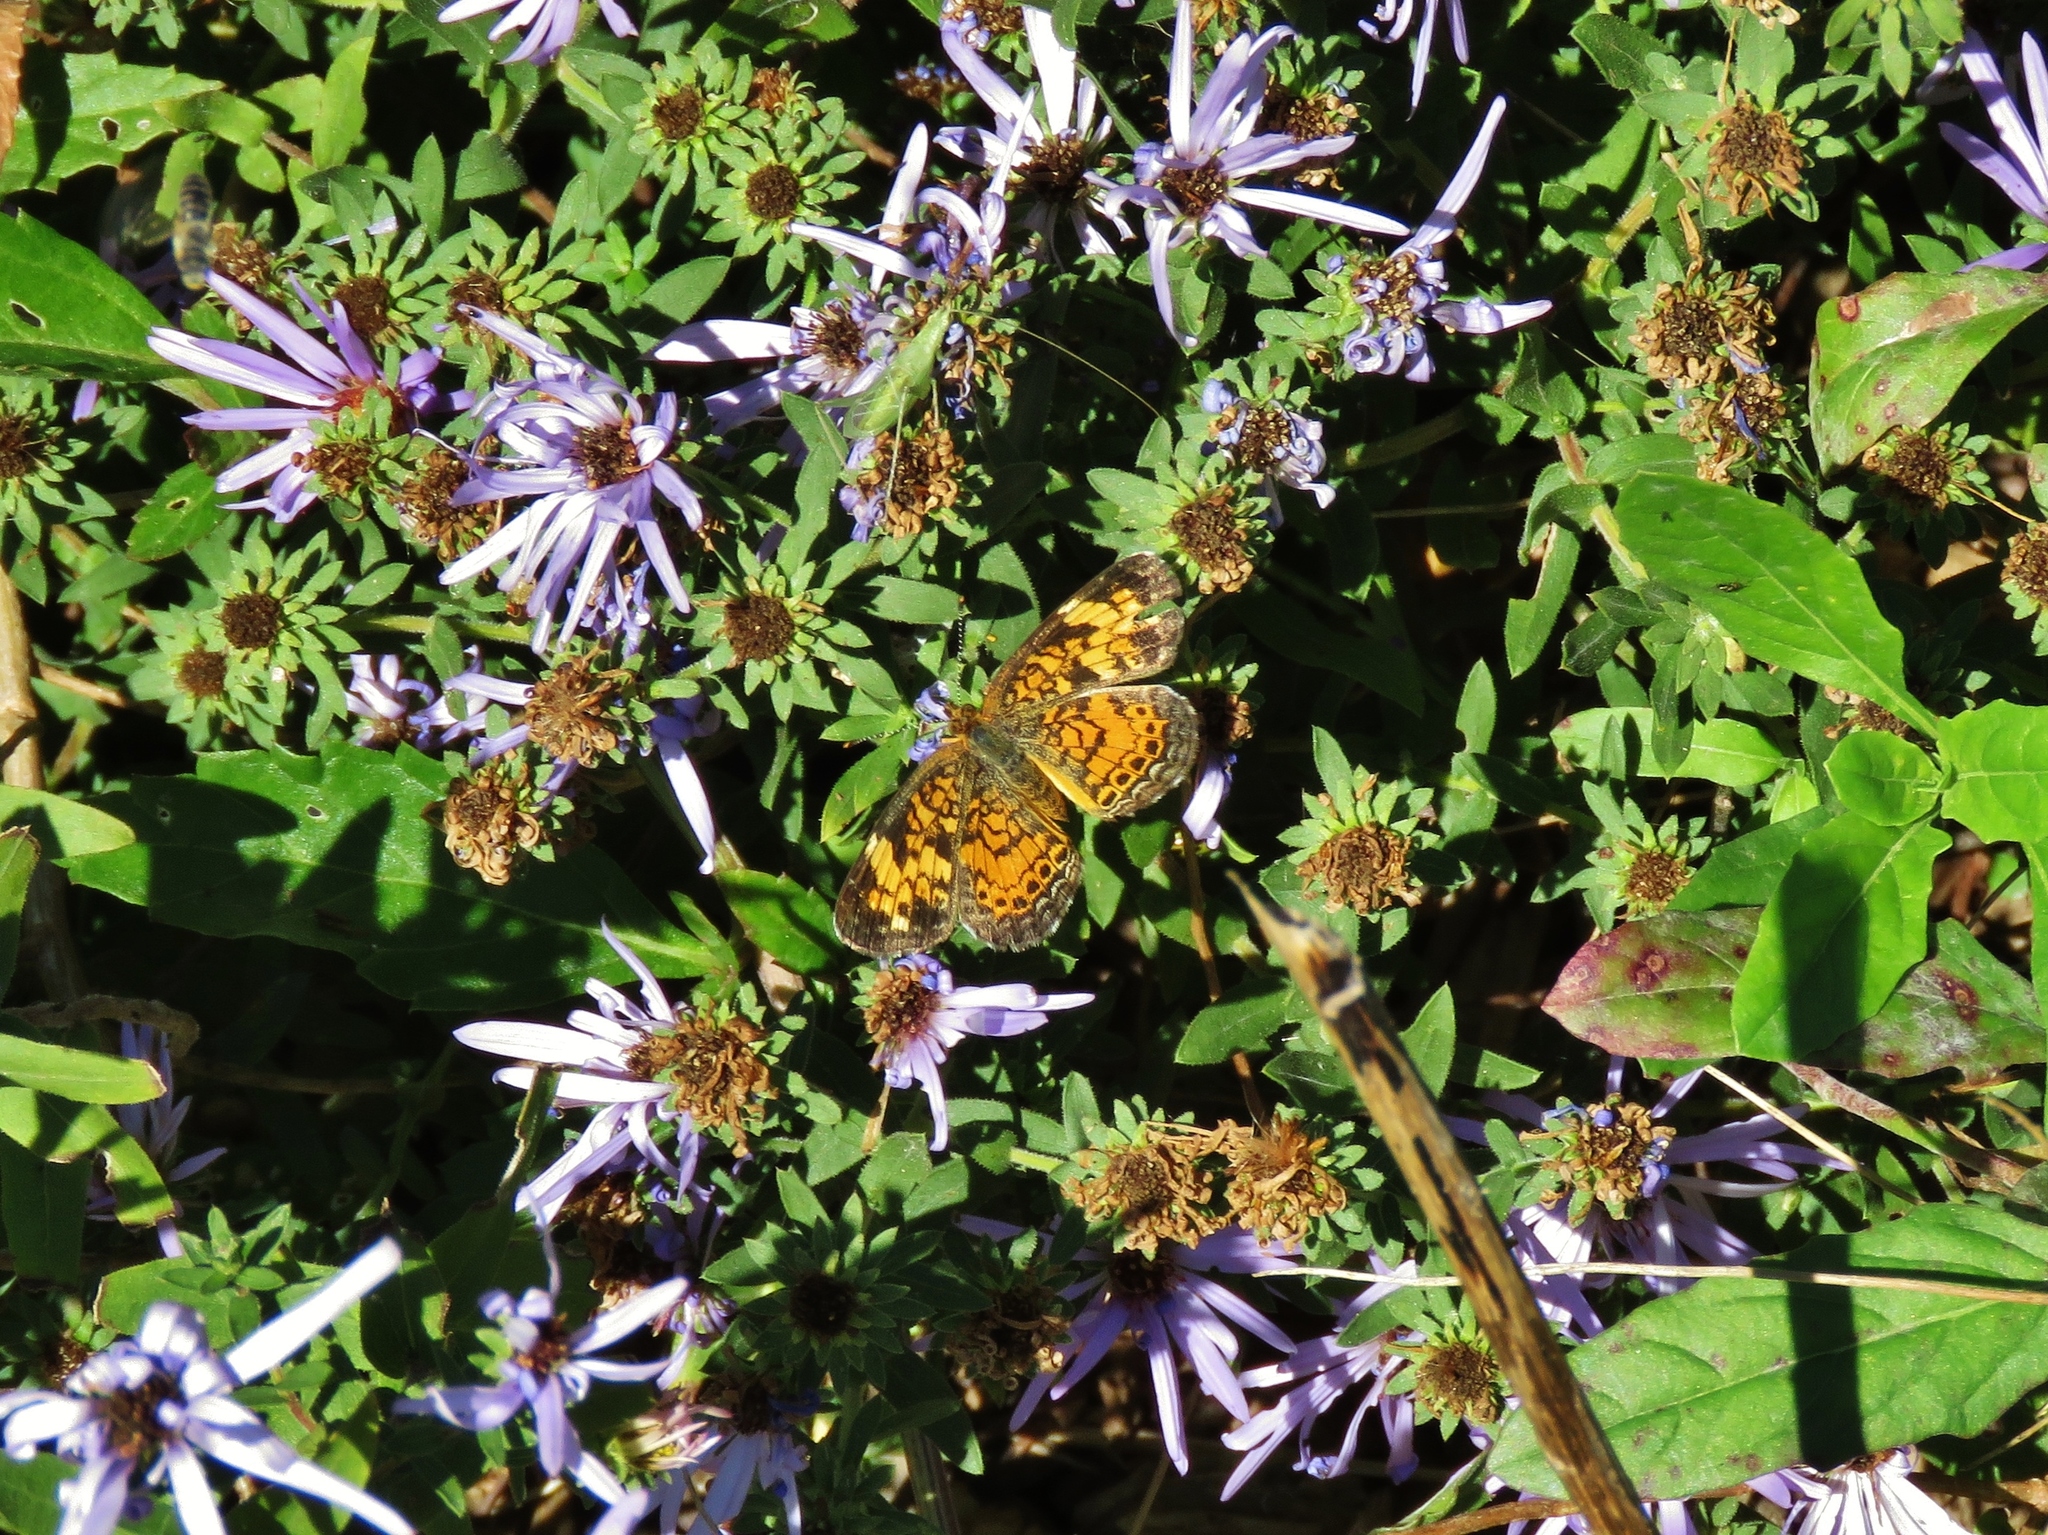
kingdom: Animalia
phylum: Arthropoda
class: Insecta
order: Lepidoptera
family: Nymphalidae
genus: Phyciodes
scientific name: Phyciodes tharos
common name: Pearl crescent
